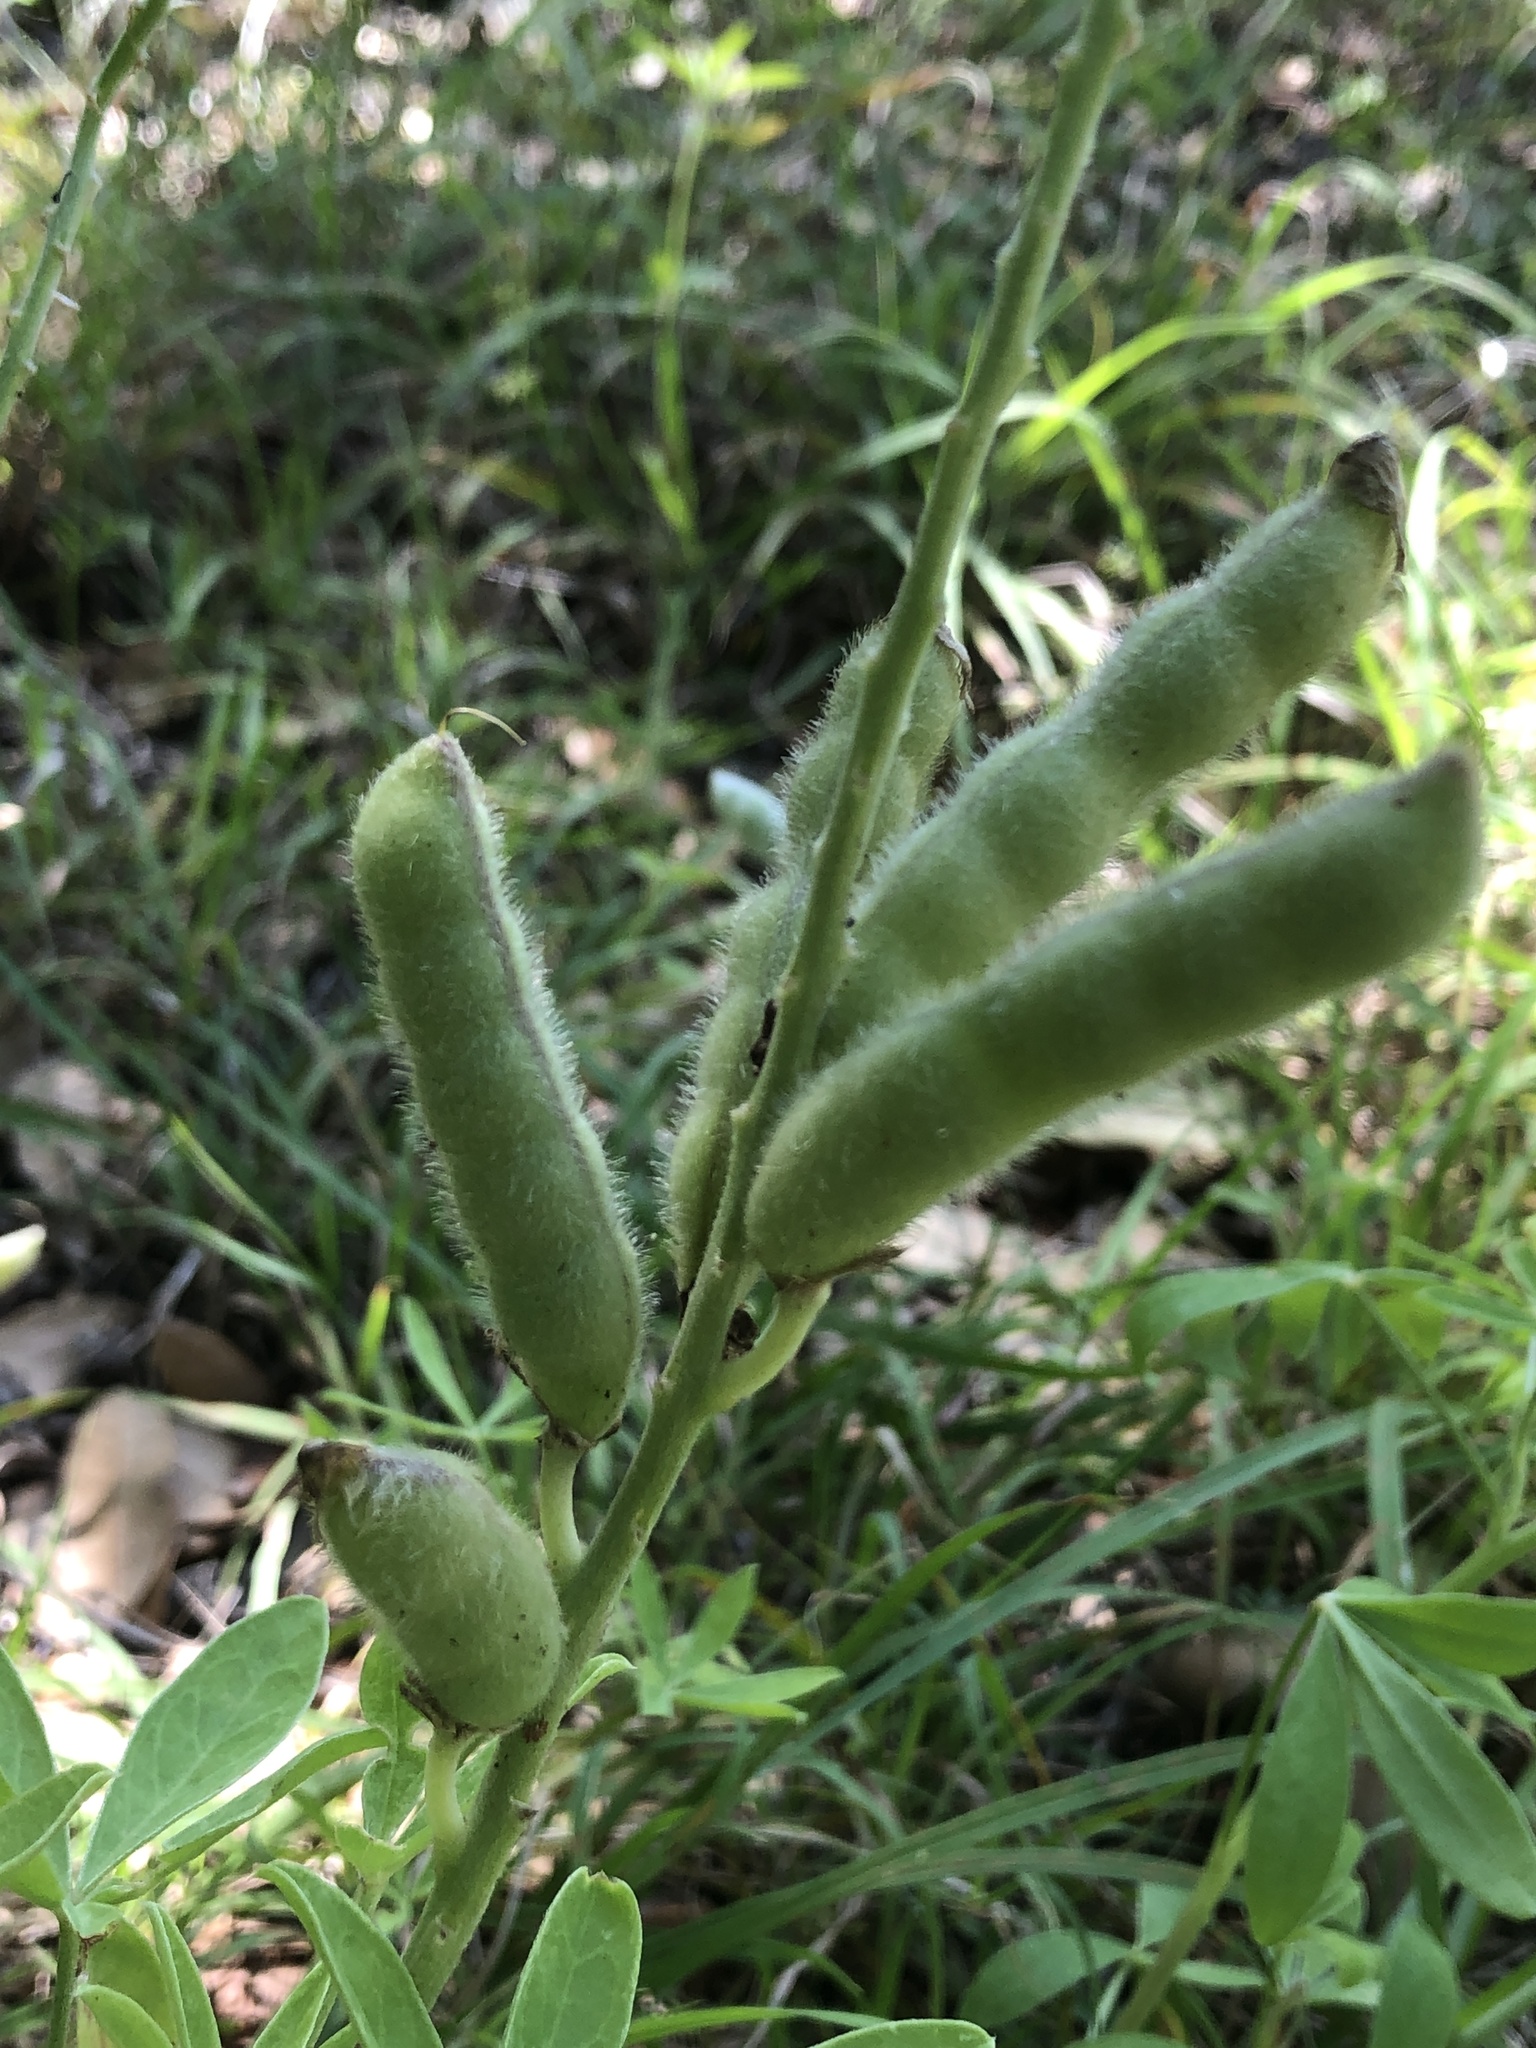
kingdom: Plantae
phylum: Tracheophyta
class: Magnoliopsida
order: Fabales
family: Fabaceae
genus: Lupinus
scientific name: Lupinus texensis
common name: Texas bluebonnet
